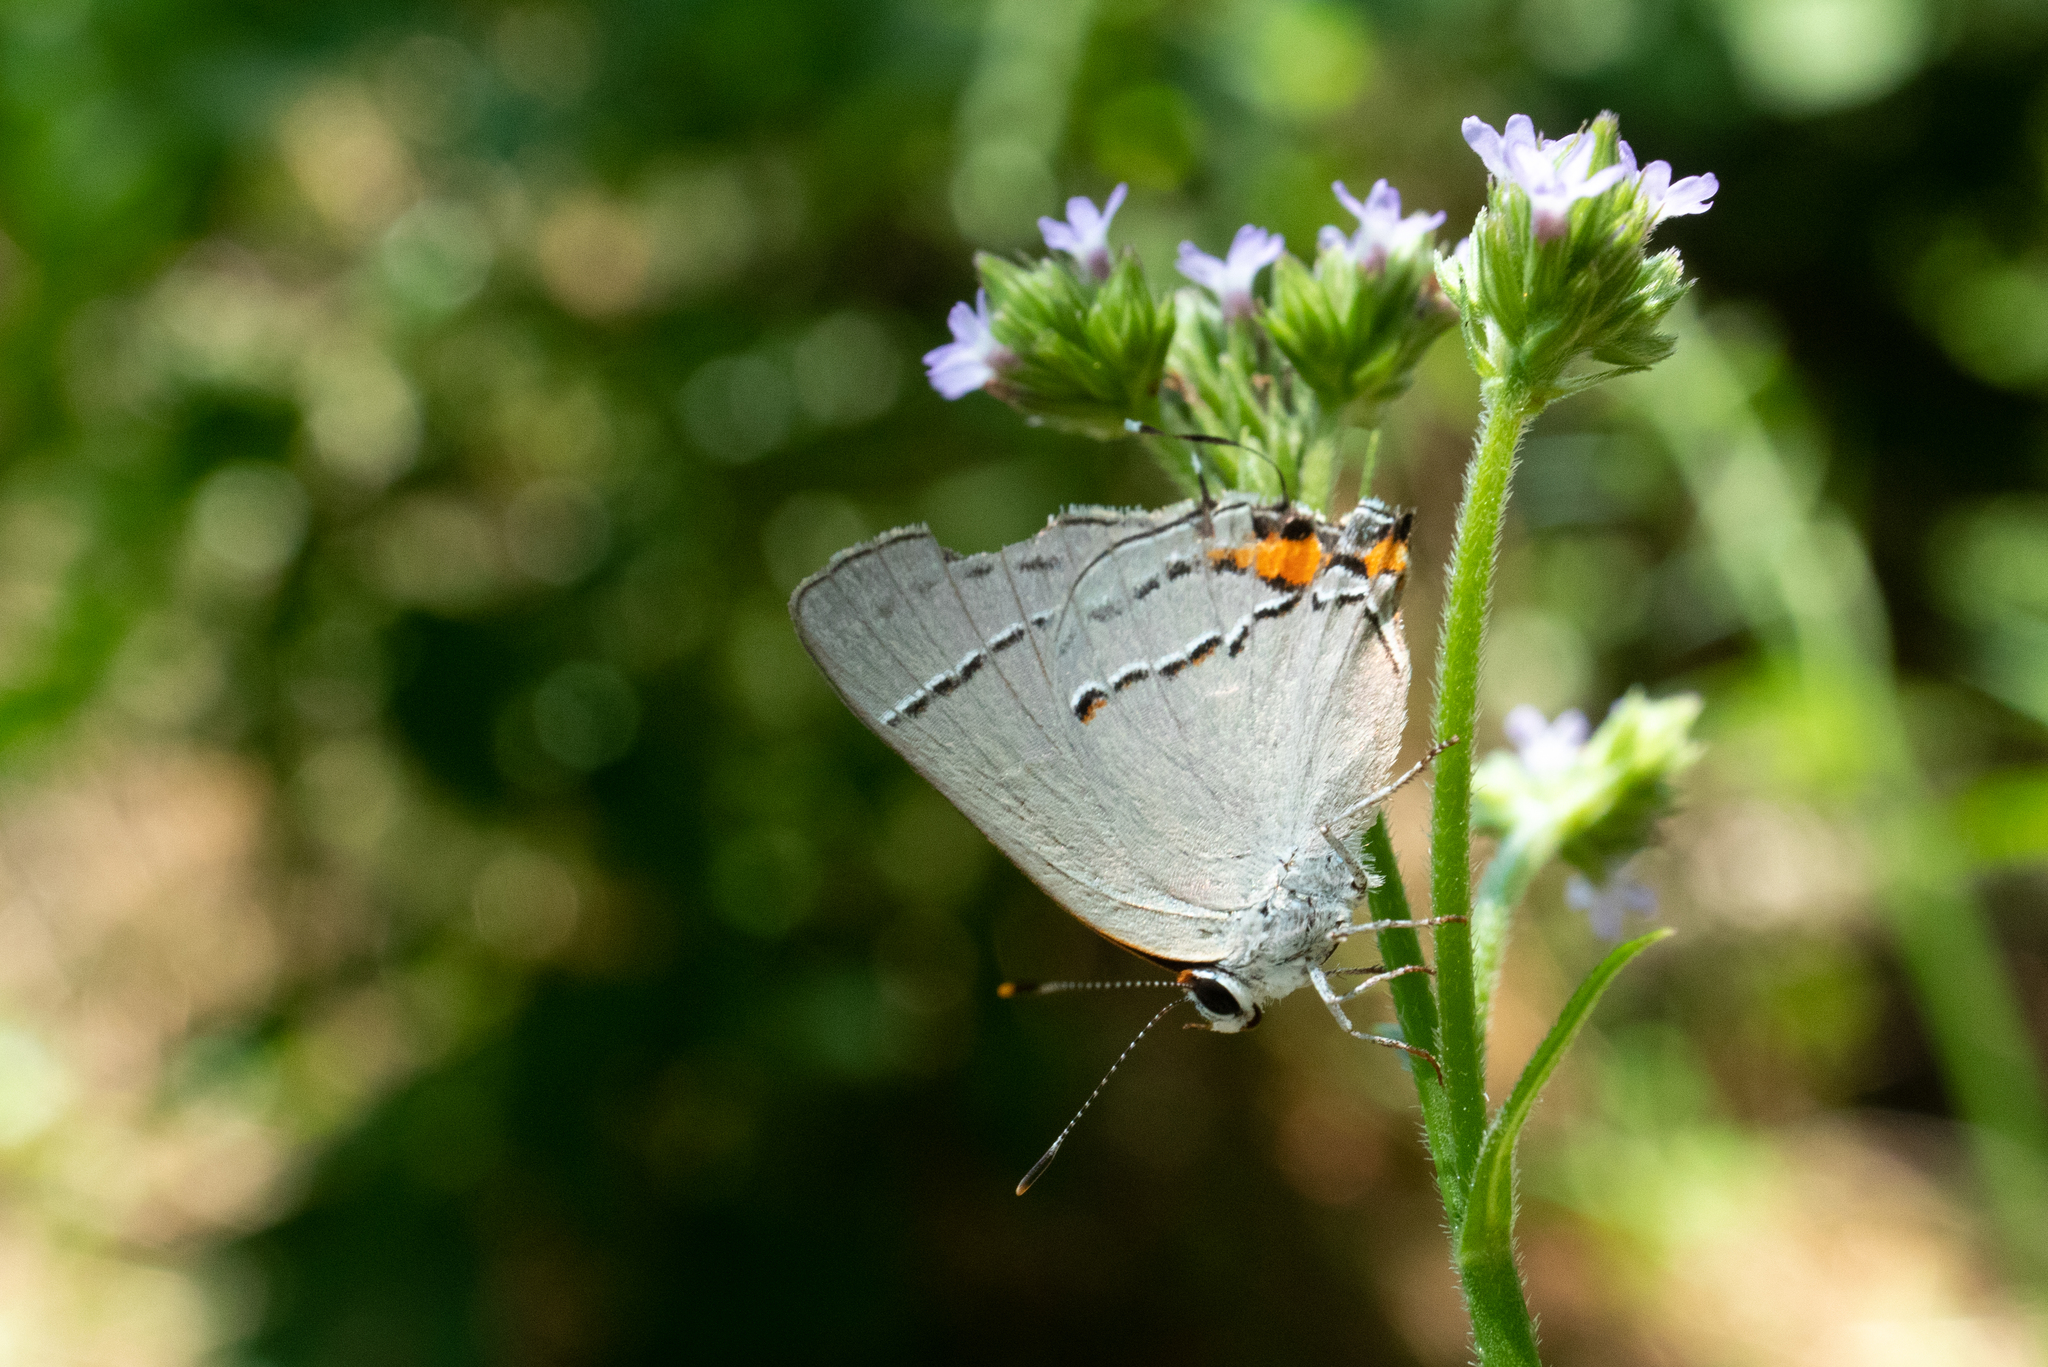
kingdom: Animalia
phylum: Arthropoda
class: Insecta
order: Lepidoptera
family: Lycaenidae
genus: Strymon
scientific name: Strymon melinus
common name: Gray hairstreak
